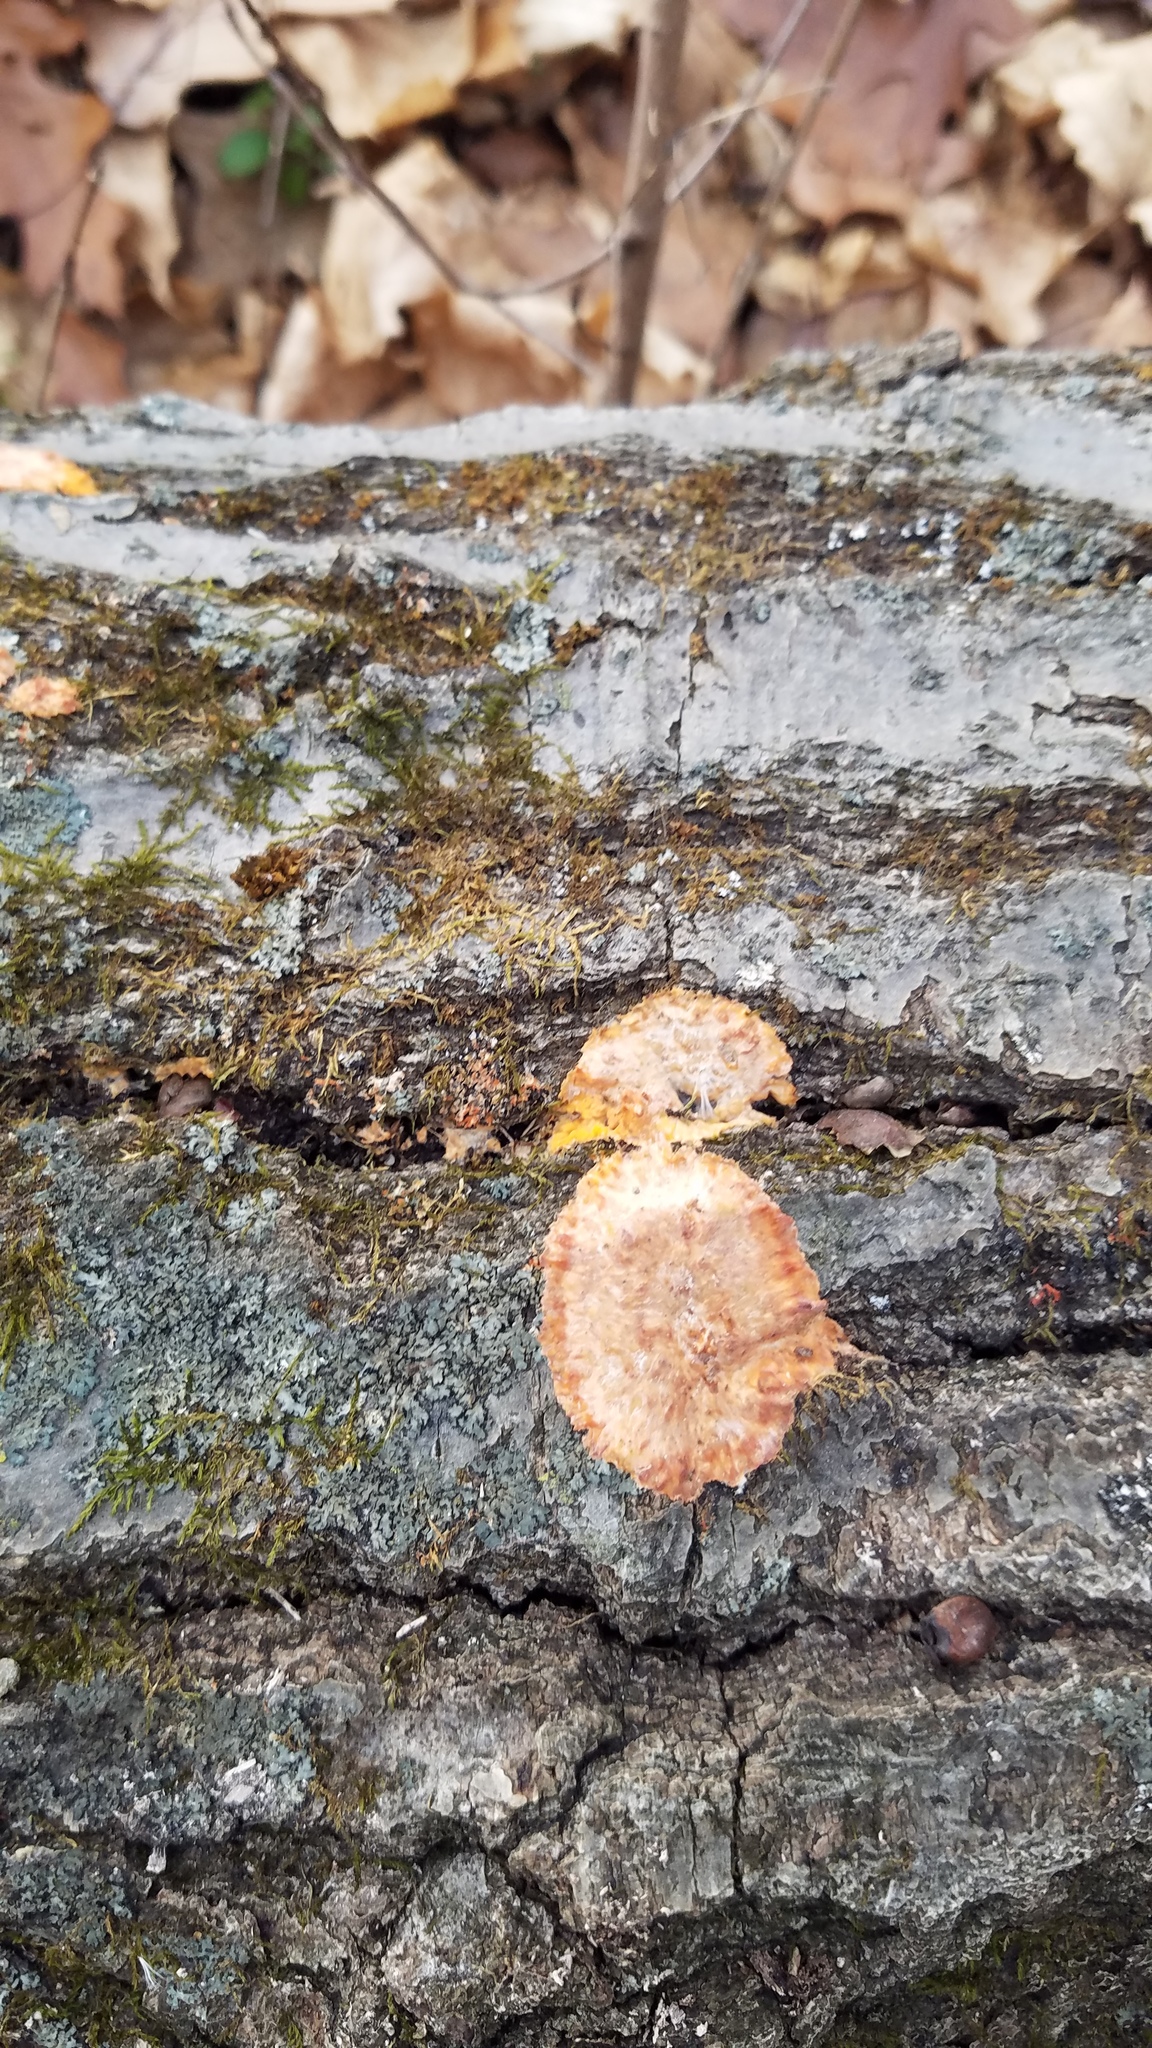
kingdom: Fungi
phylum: Basidiomycota
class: Agaricomycetes
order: Polyporales
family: Meruliaceae
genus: Phlebia
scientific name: Phlebia radiata
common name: Wrinkled crust
